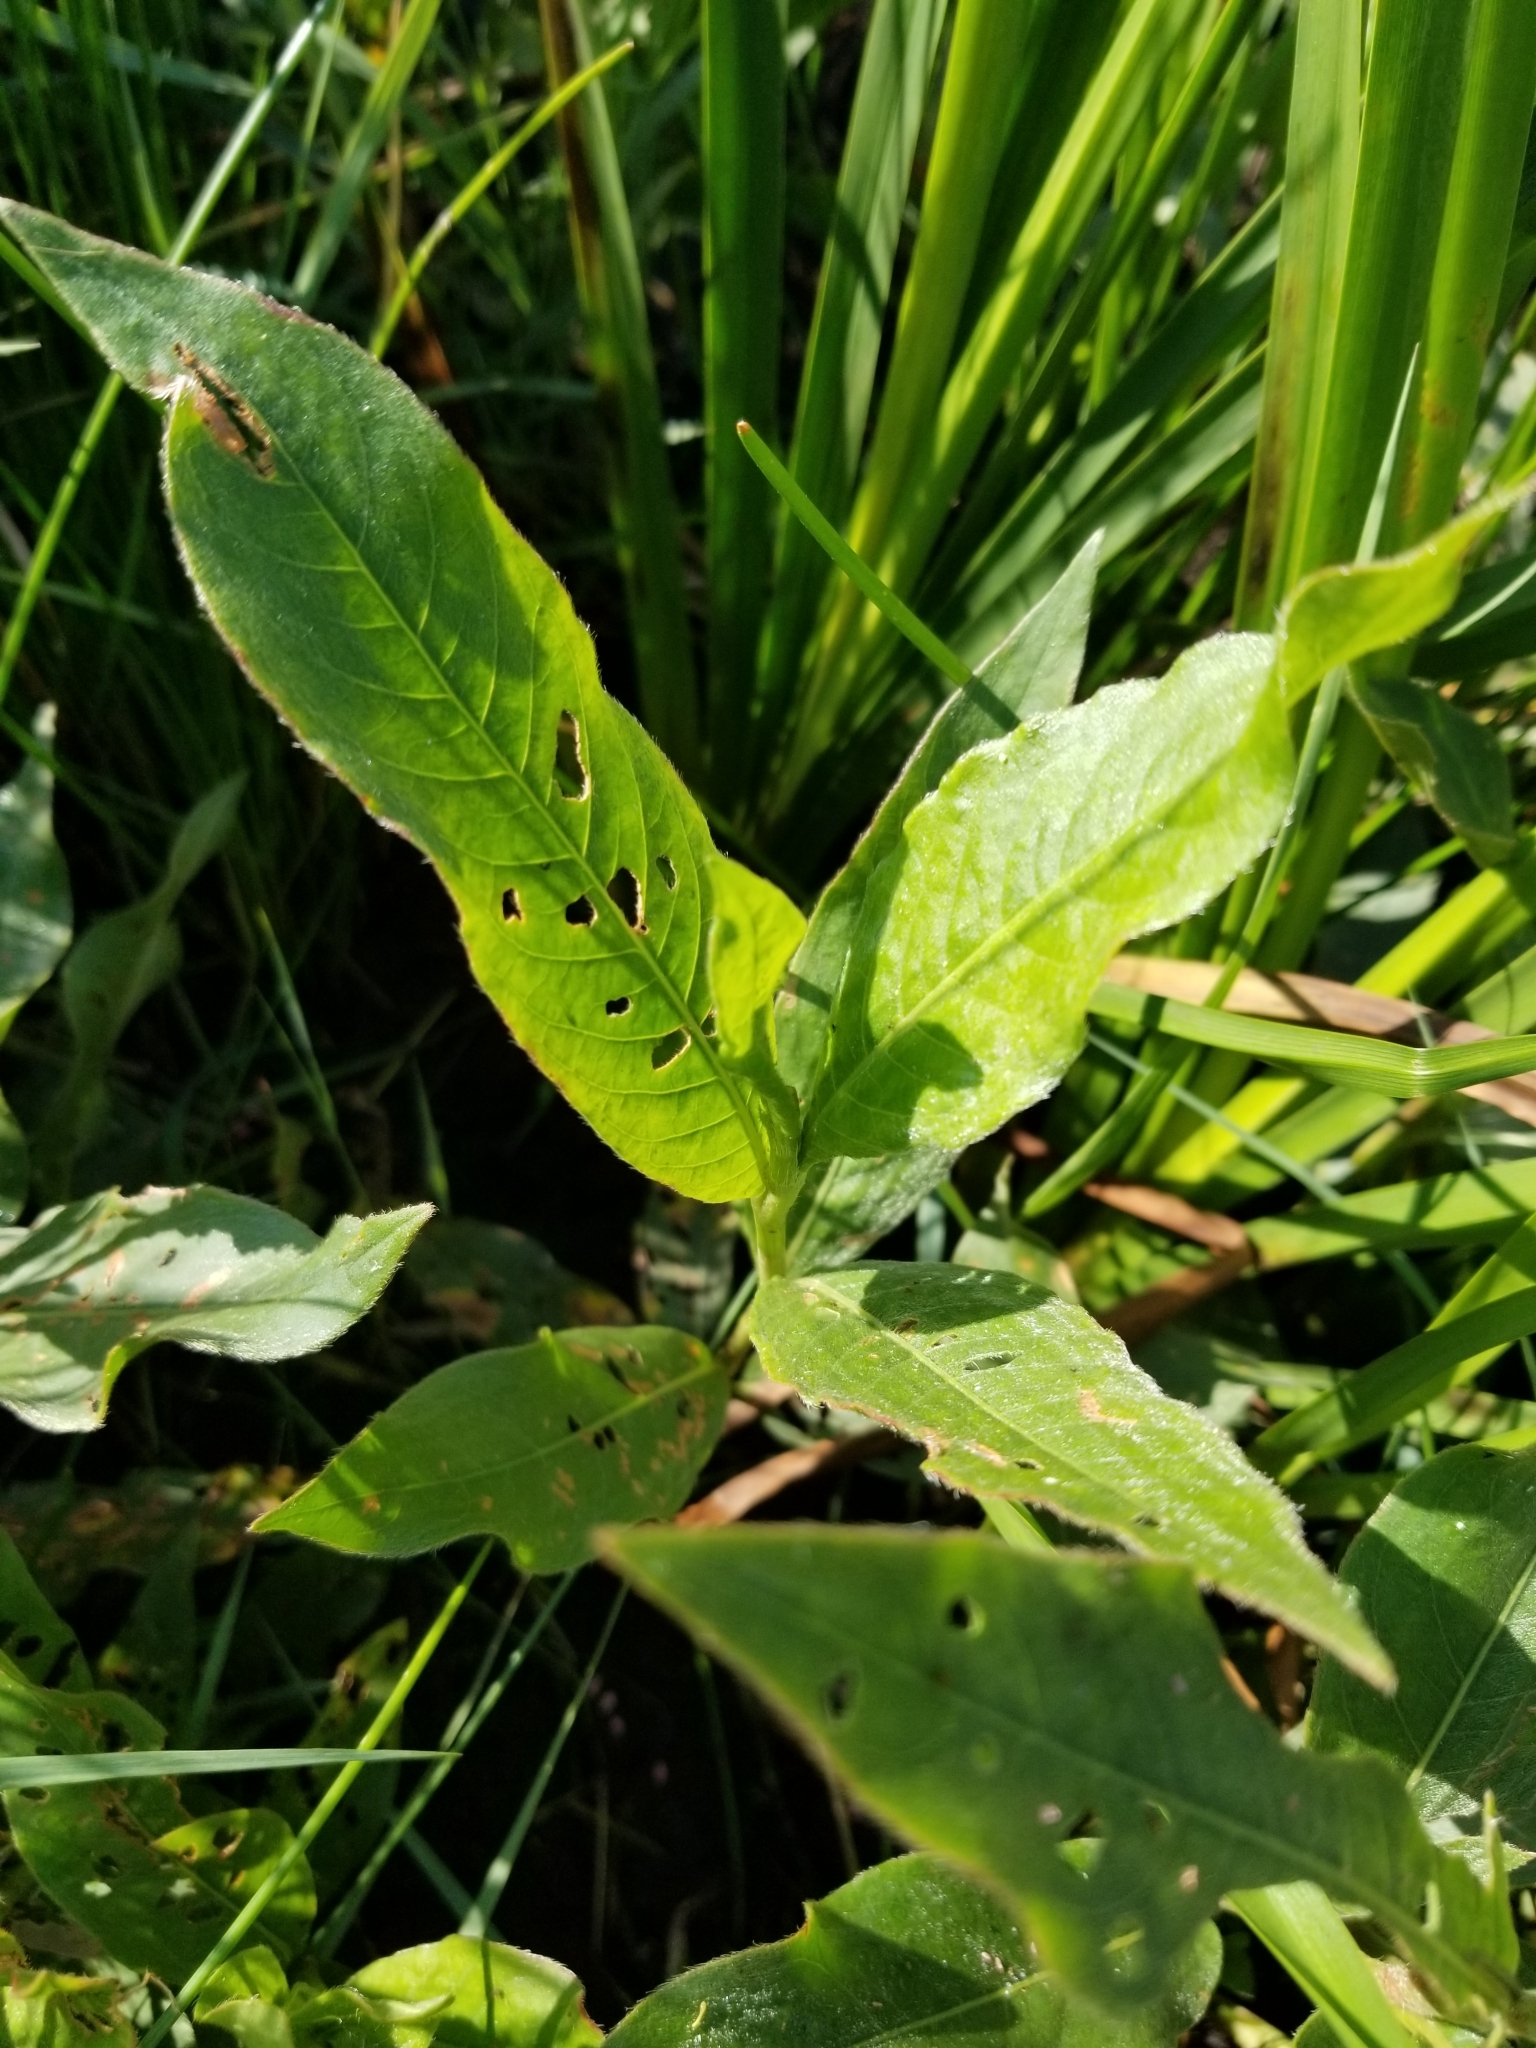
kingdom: Plantae
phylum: Tracheophyta
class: Magnoliopsida
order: Caryophyllales
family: Polygonaceae
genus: Persicaria
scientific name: Persicaria amphibia
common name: Amphibious bistort
